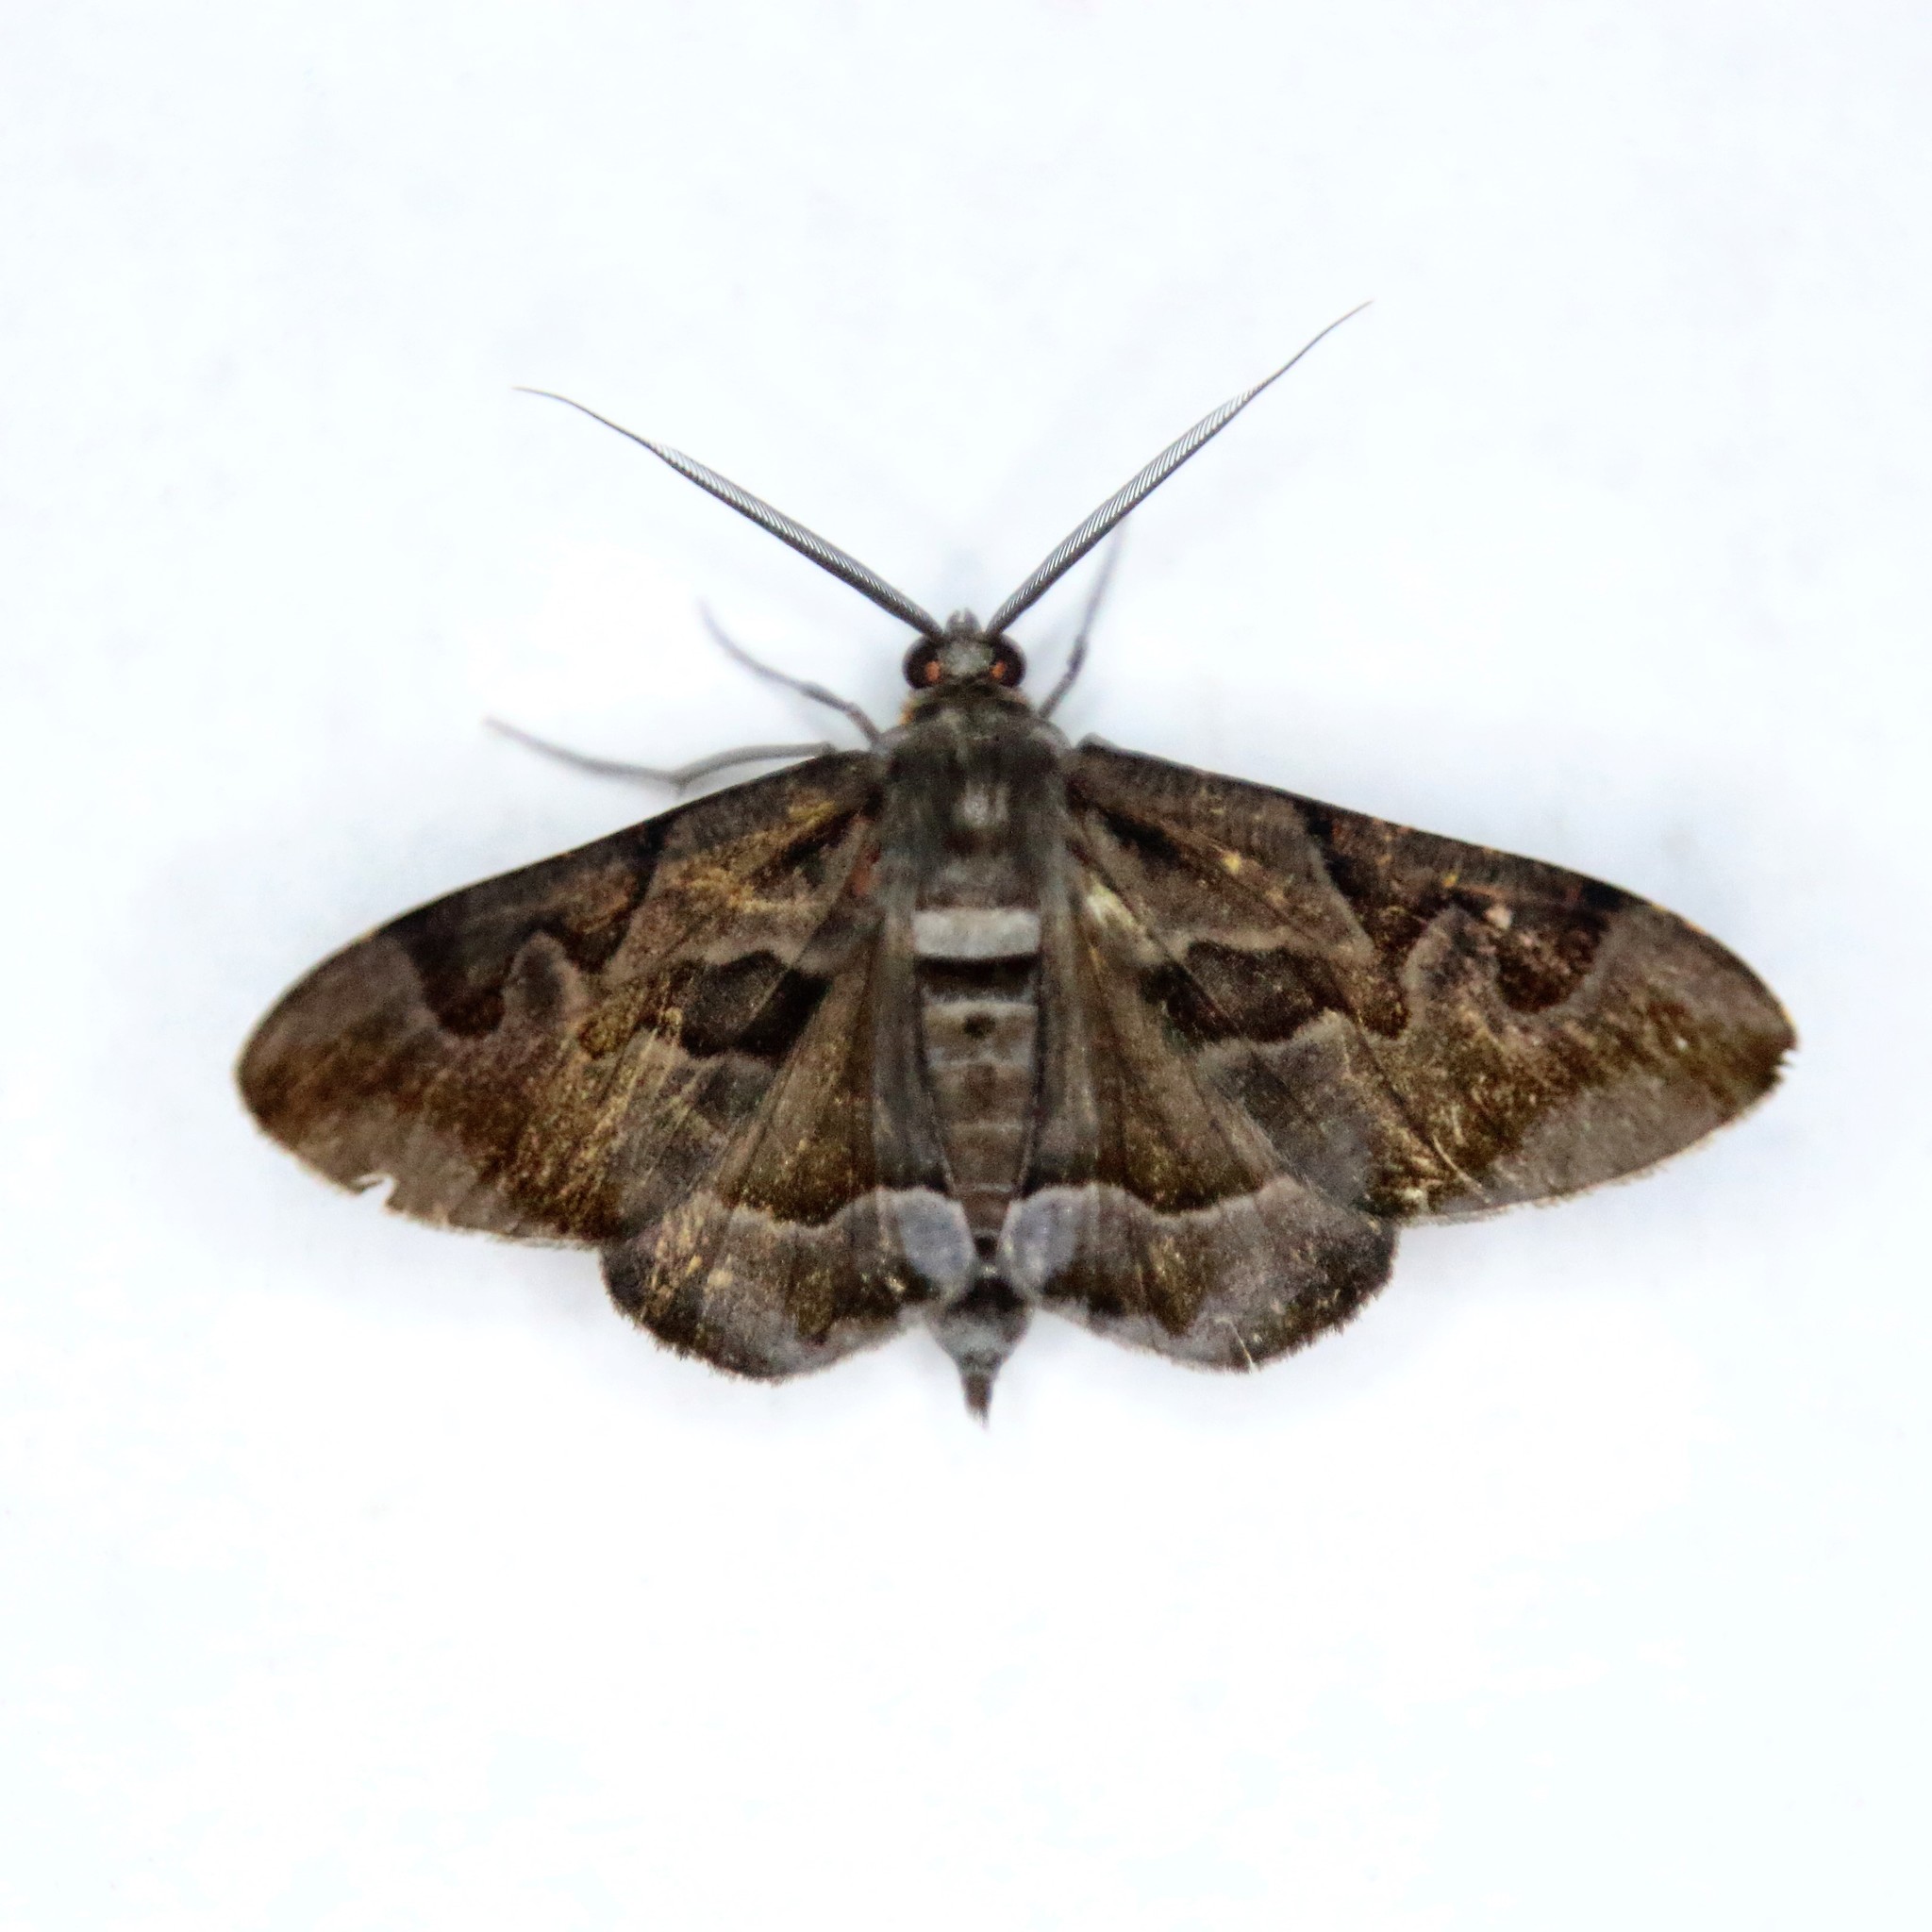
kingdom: Animalia
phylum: Arthropoda
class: Insecta
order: Lepidoptera
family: Geometridae
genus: Hypochrosis
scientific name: Hypochrosis binexata
